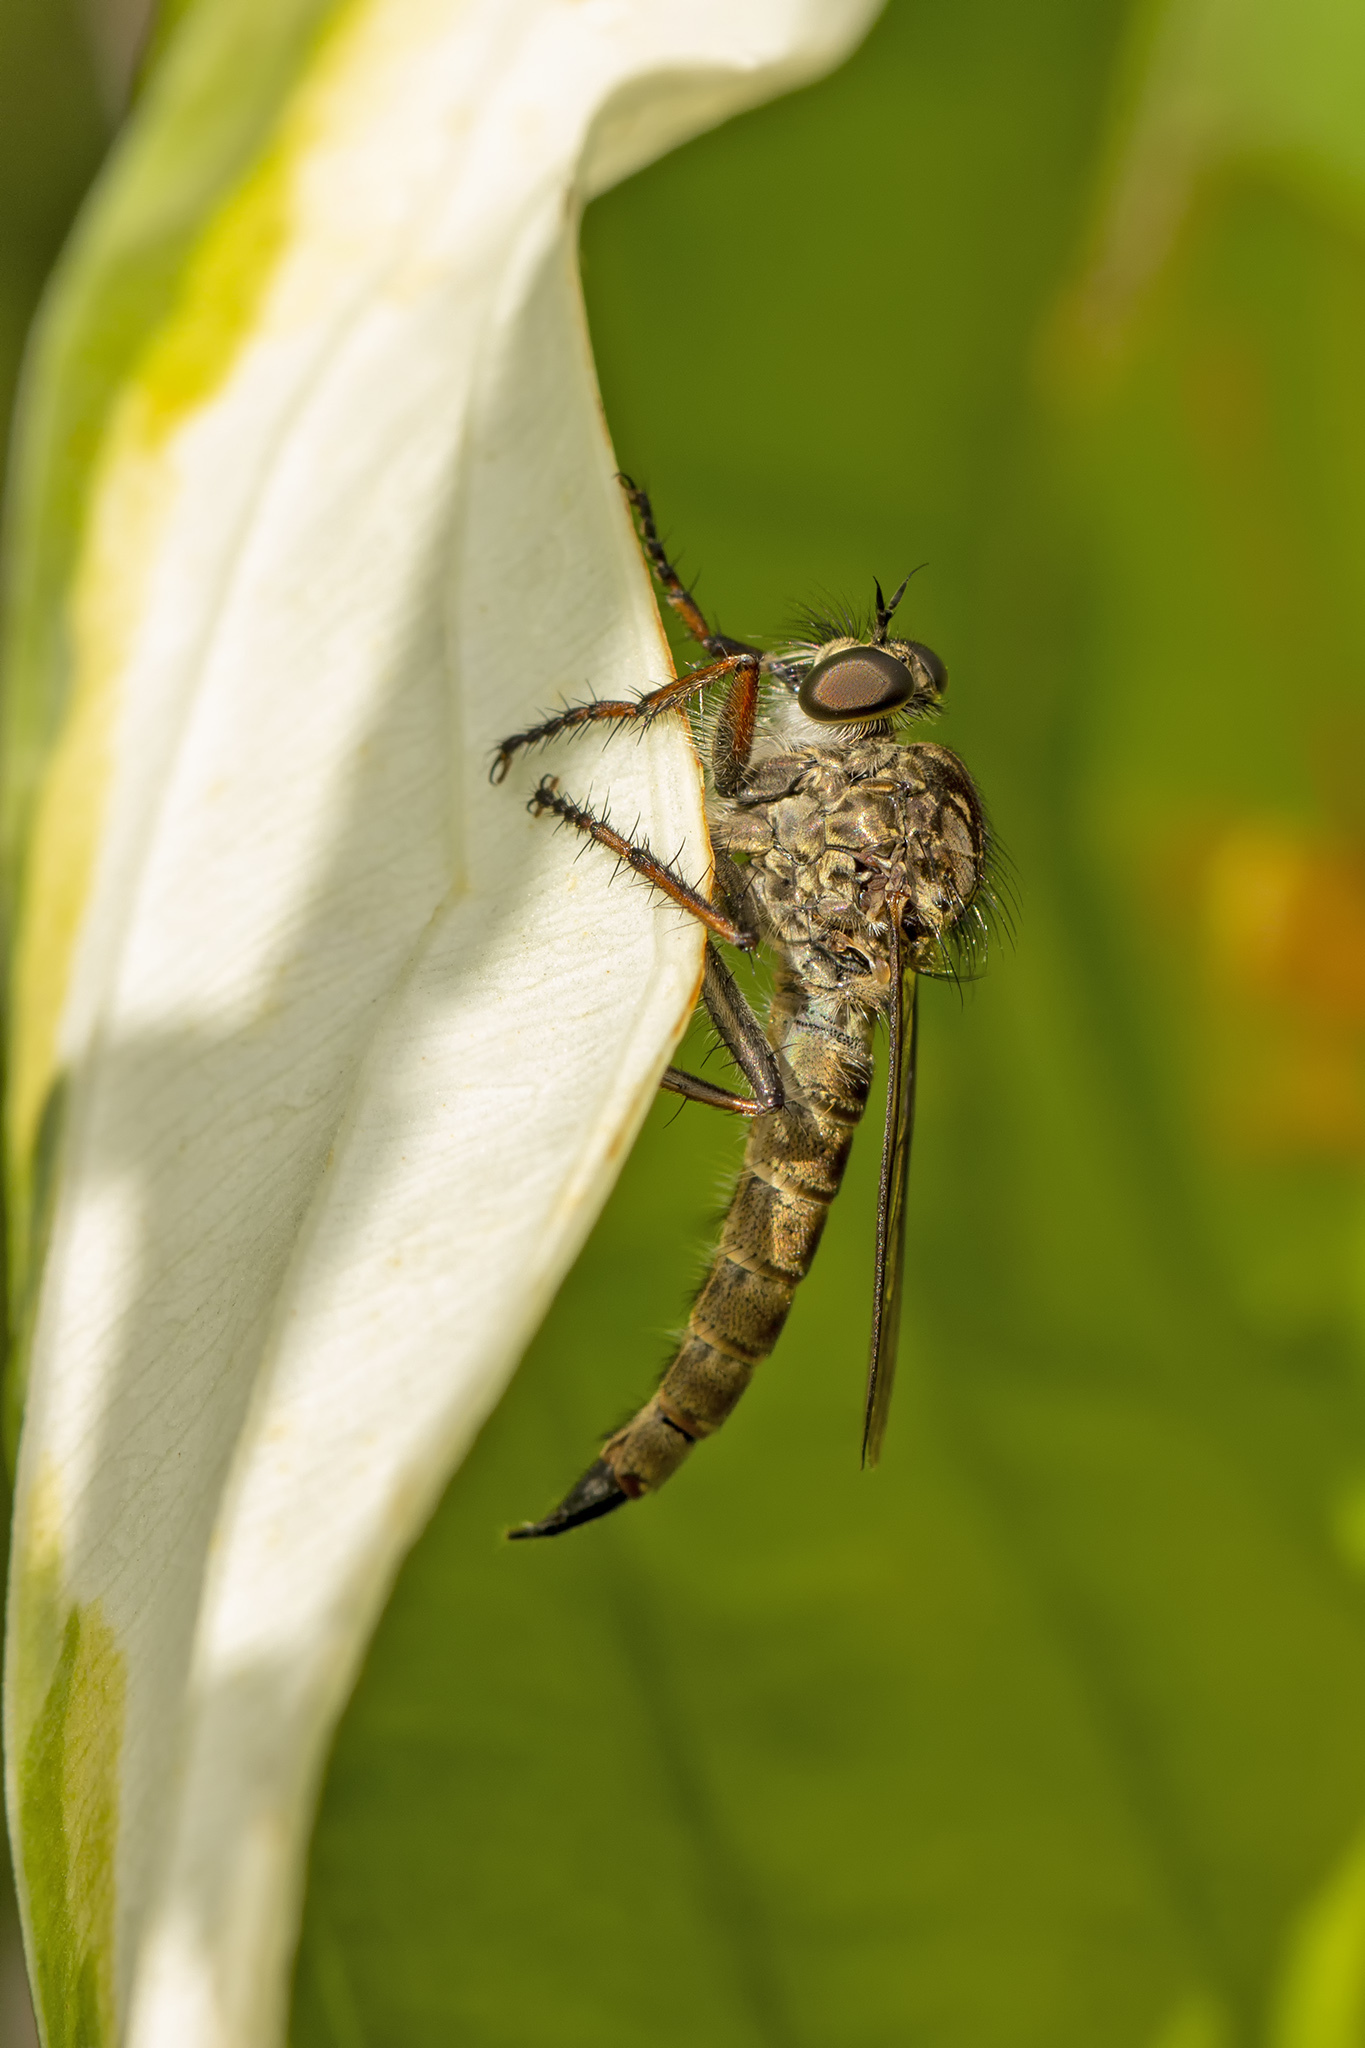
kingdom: Animalia
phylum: Arthropoda
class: Insecta
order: Diptera
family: Asilidae
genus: Machimus
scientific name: Machimus atricapillus
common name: Kite-tailed robberfly
